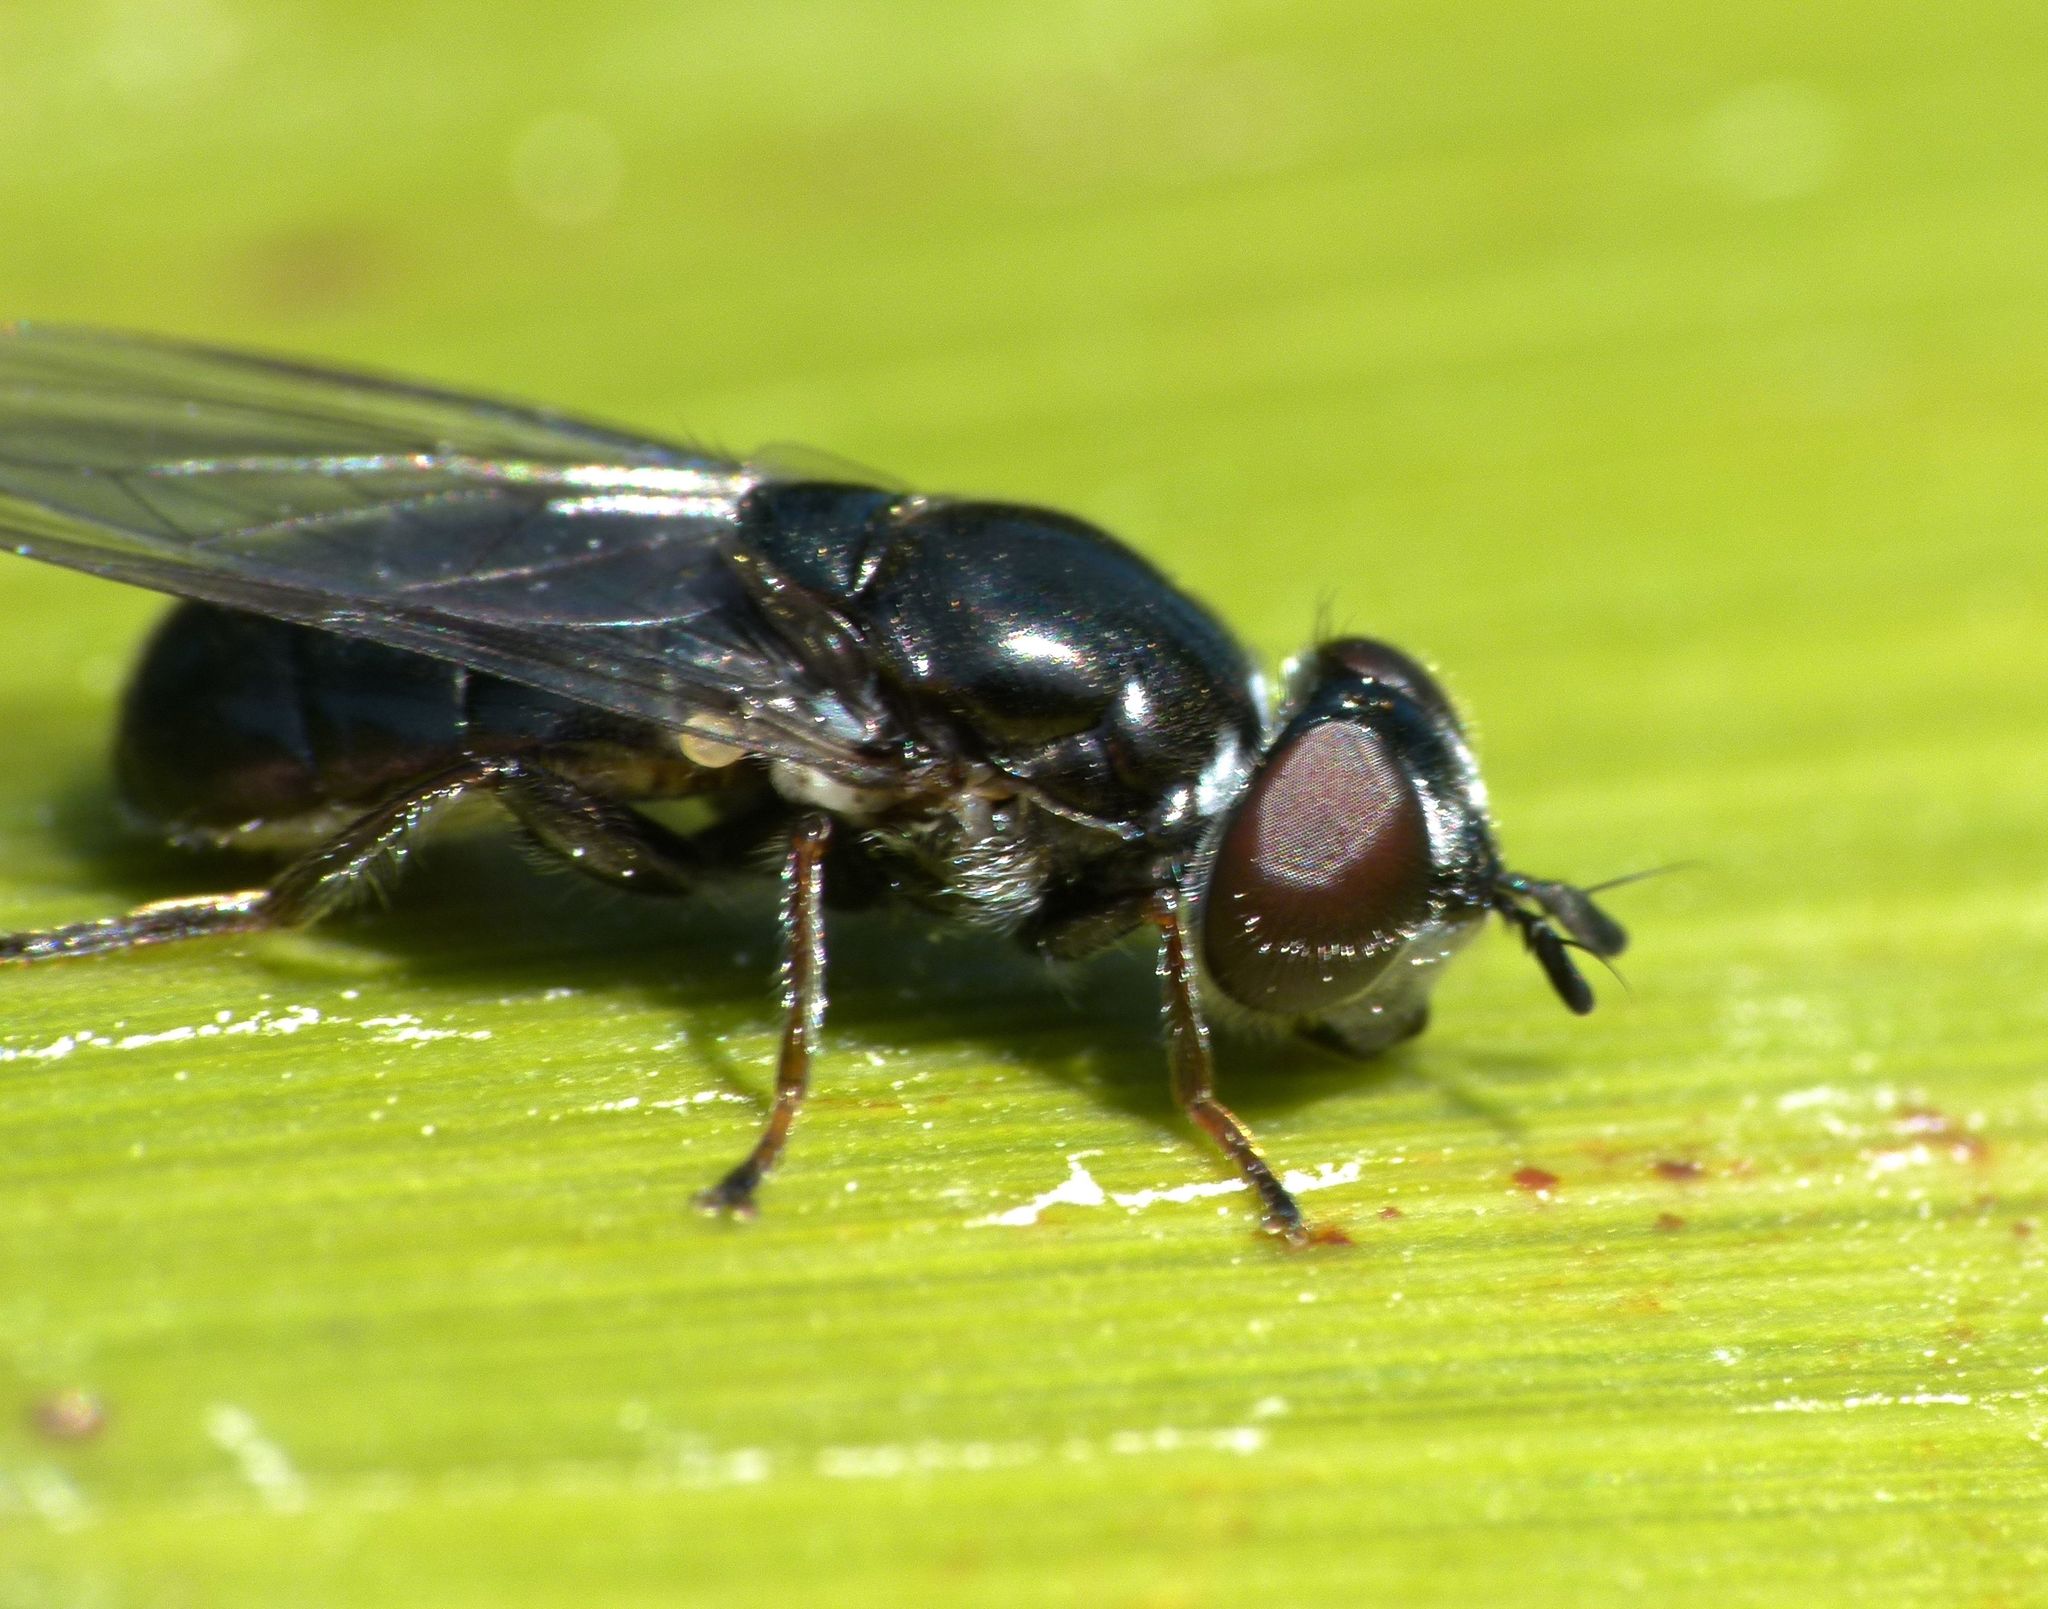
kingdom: Animalia
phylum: Arthropoda
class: Insecta
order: Diptera
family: Syrphidae
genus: Psilota
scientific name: Psilota decessum
